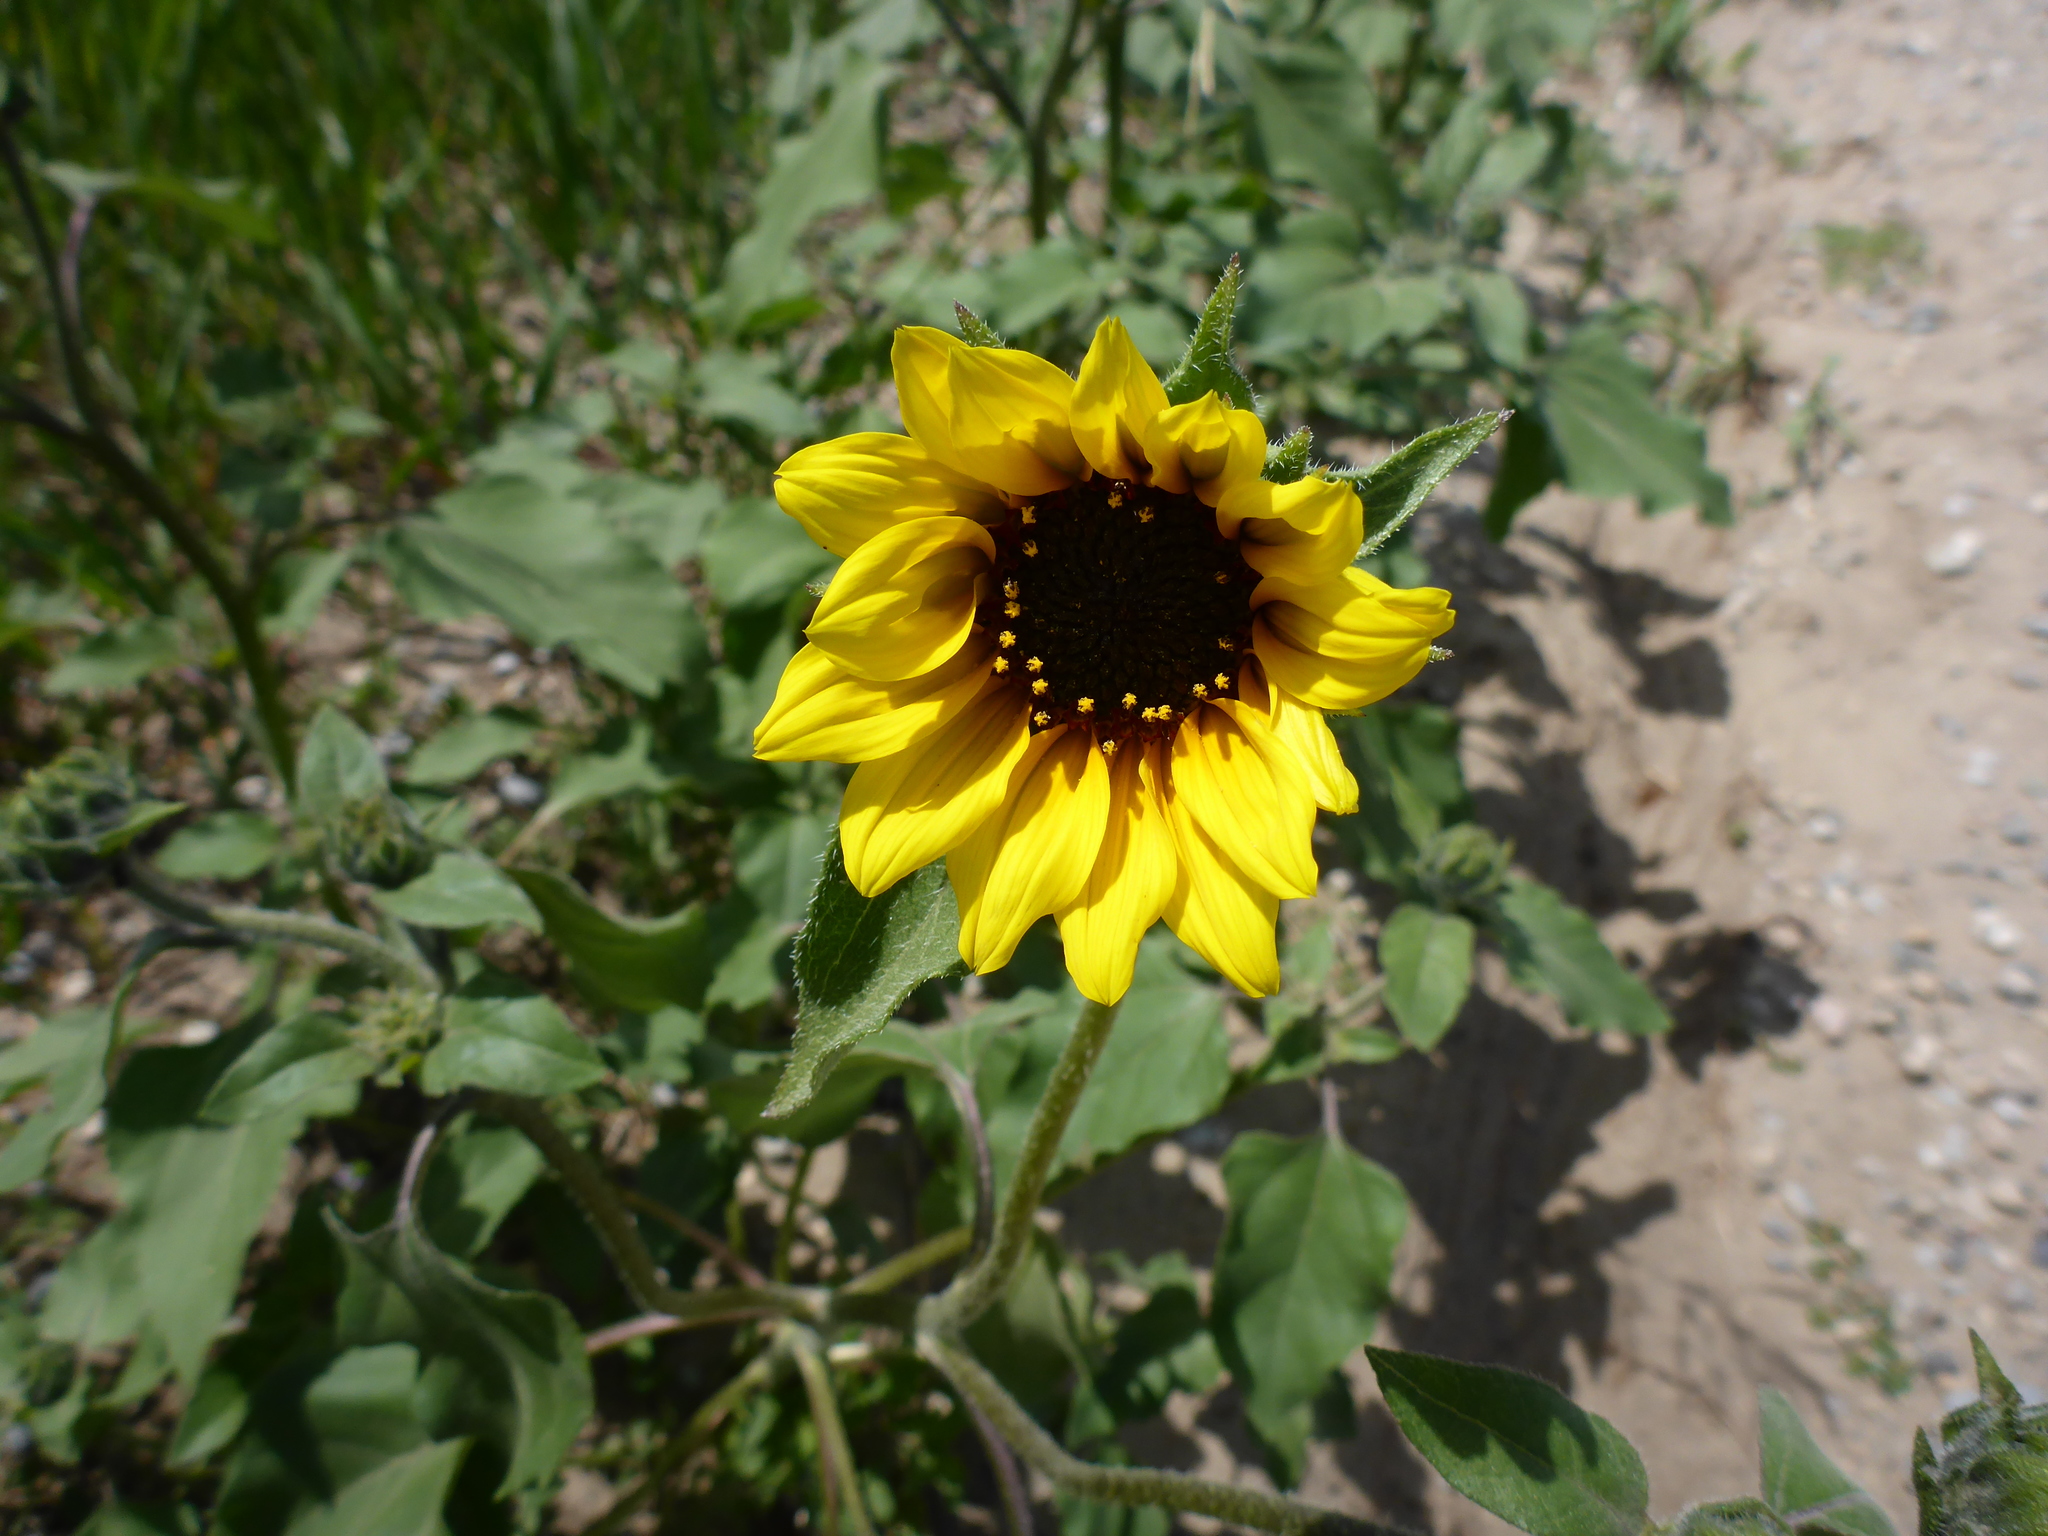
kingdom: Plantae
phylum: Tracheophyta
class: Magnoliopsida
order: Asterales
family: Asteraceae
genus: Helianthus
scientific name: Helianthus annuus
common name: Sunflower
